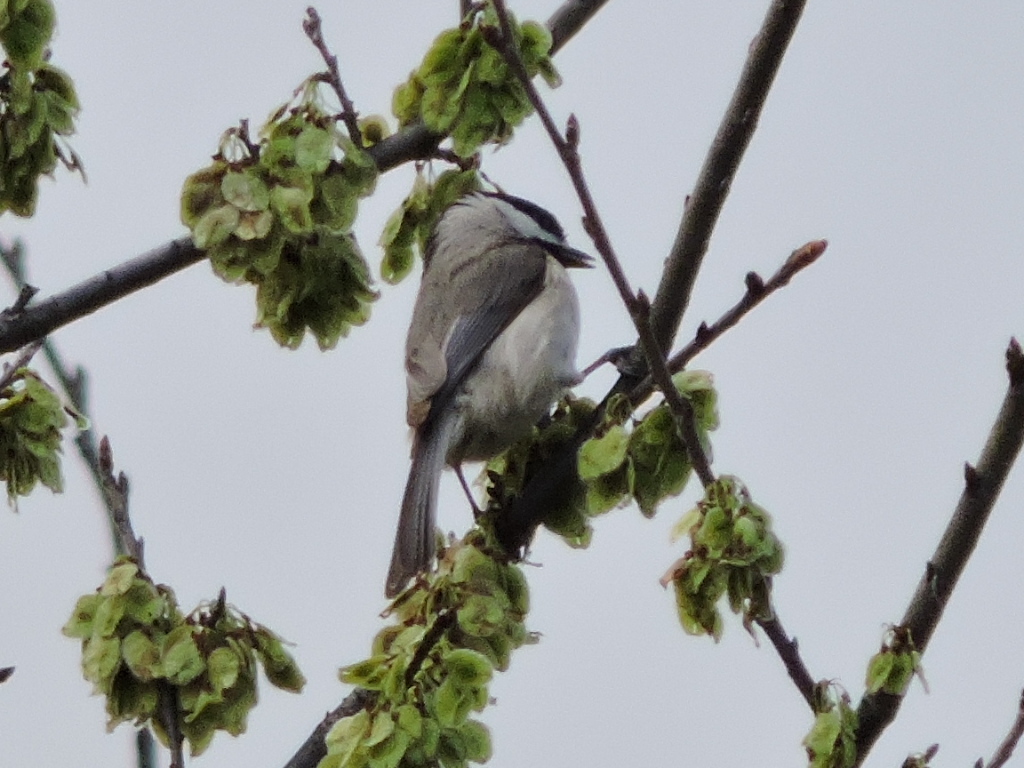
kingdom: Animalia
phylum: Chordata
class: Aves
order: Passeriformes
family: Paridae
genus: Poecile
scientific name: Poecile carolinensis
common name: Carolina chickadee
